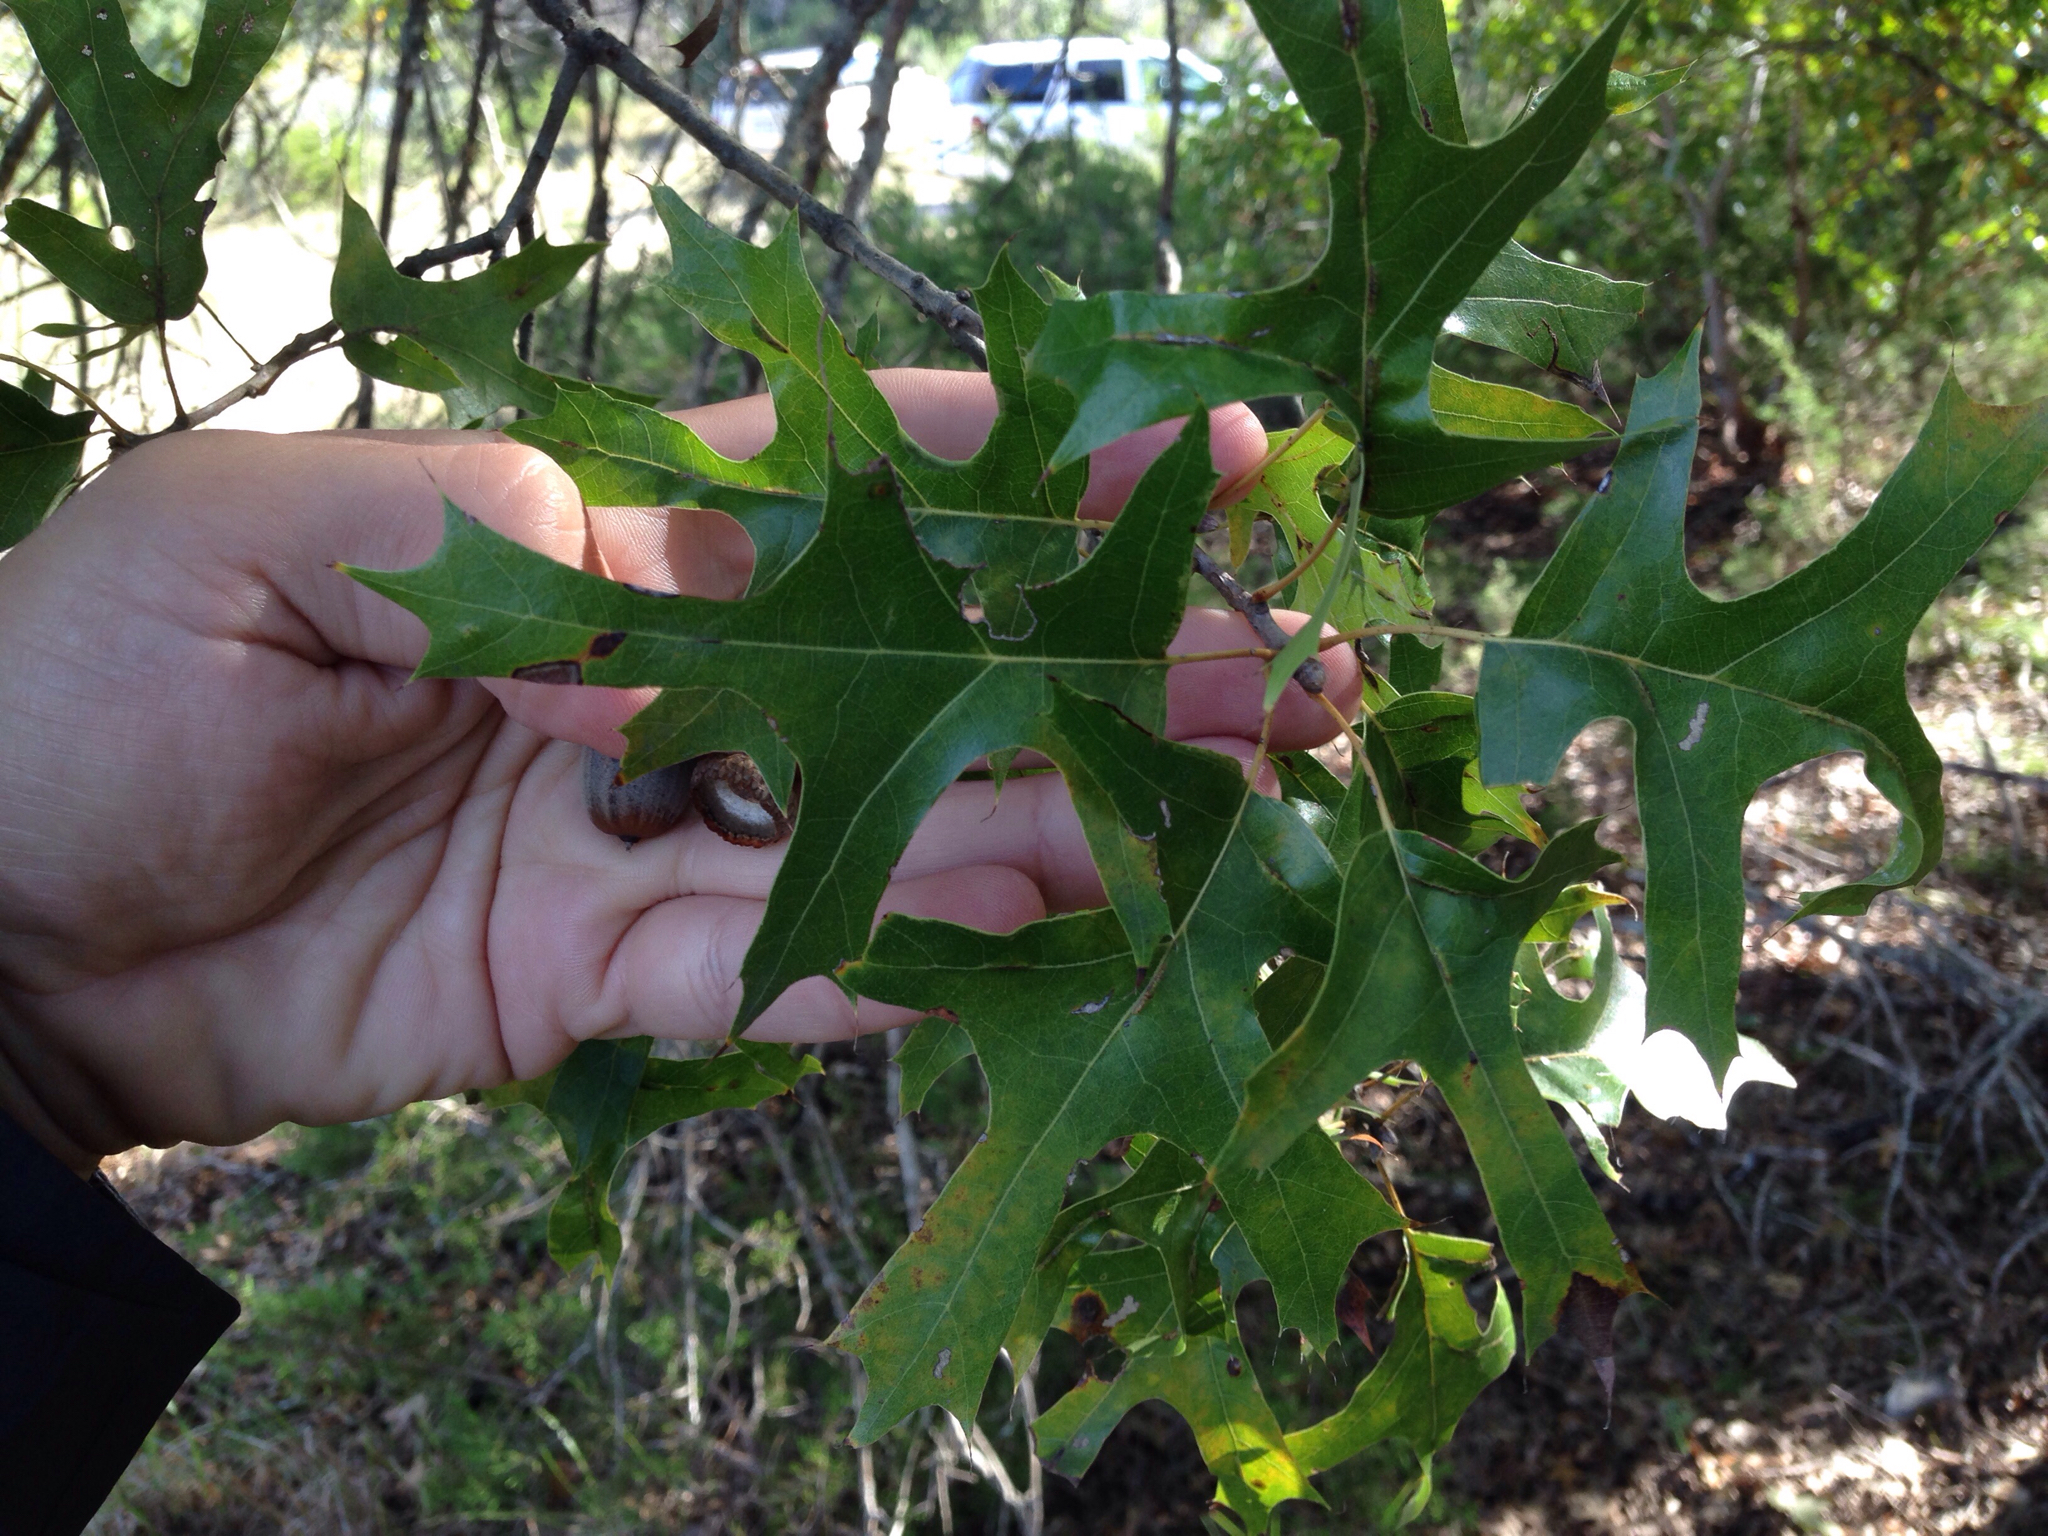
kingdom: Plantae
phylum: Tracheophyta
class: Magnoliopsida
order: Fagales
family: Fagaceae
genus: Quercus
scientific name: Quercus buckleyi
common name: Buckley oak
